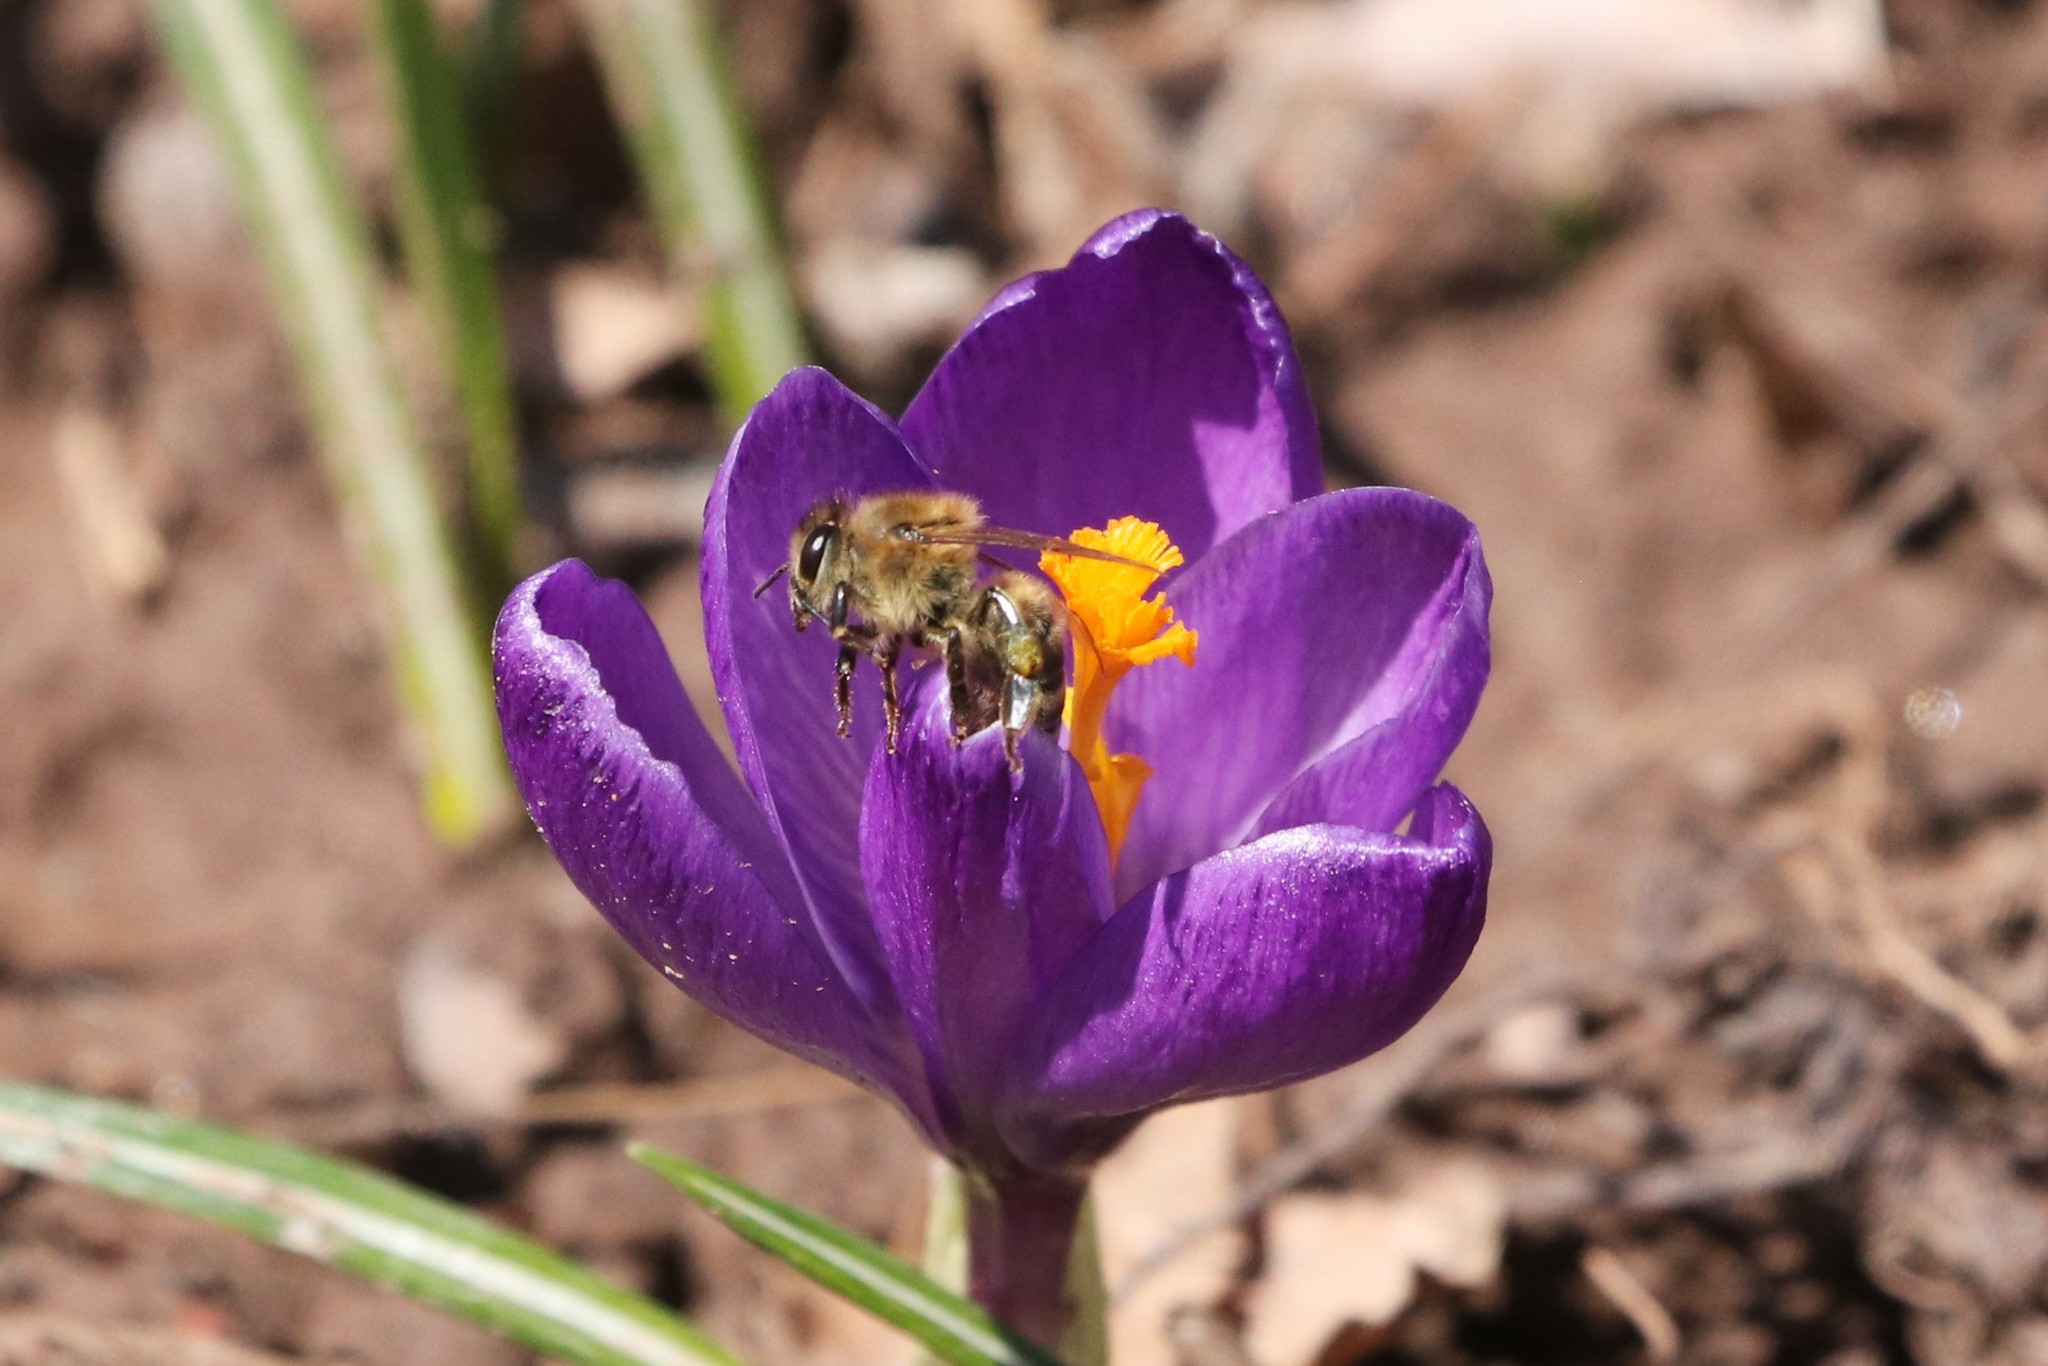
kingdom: Animalia
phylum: Arthropoda
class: Insecta
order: Hymenoptera
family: Apidae
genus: Apis
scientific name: Apis mellifera
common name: Honey bee
